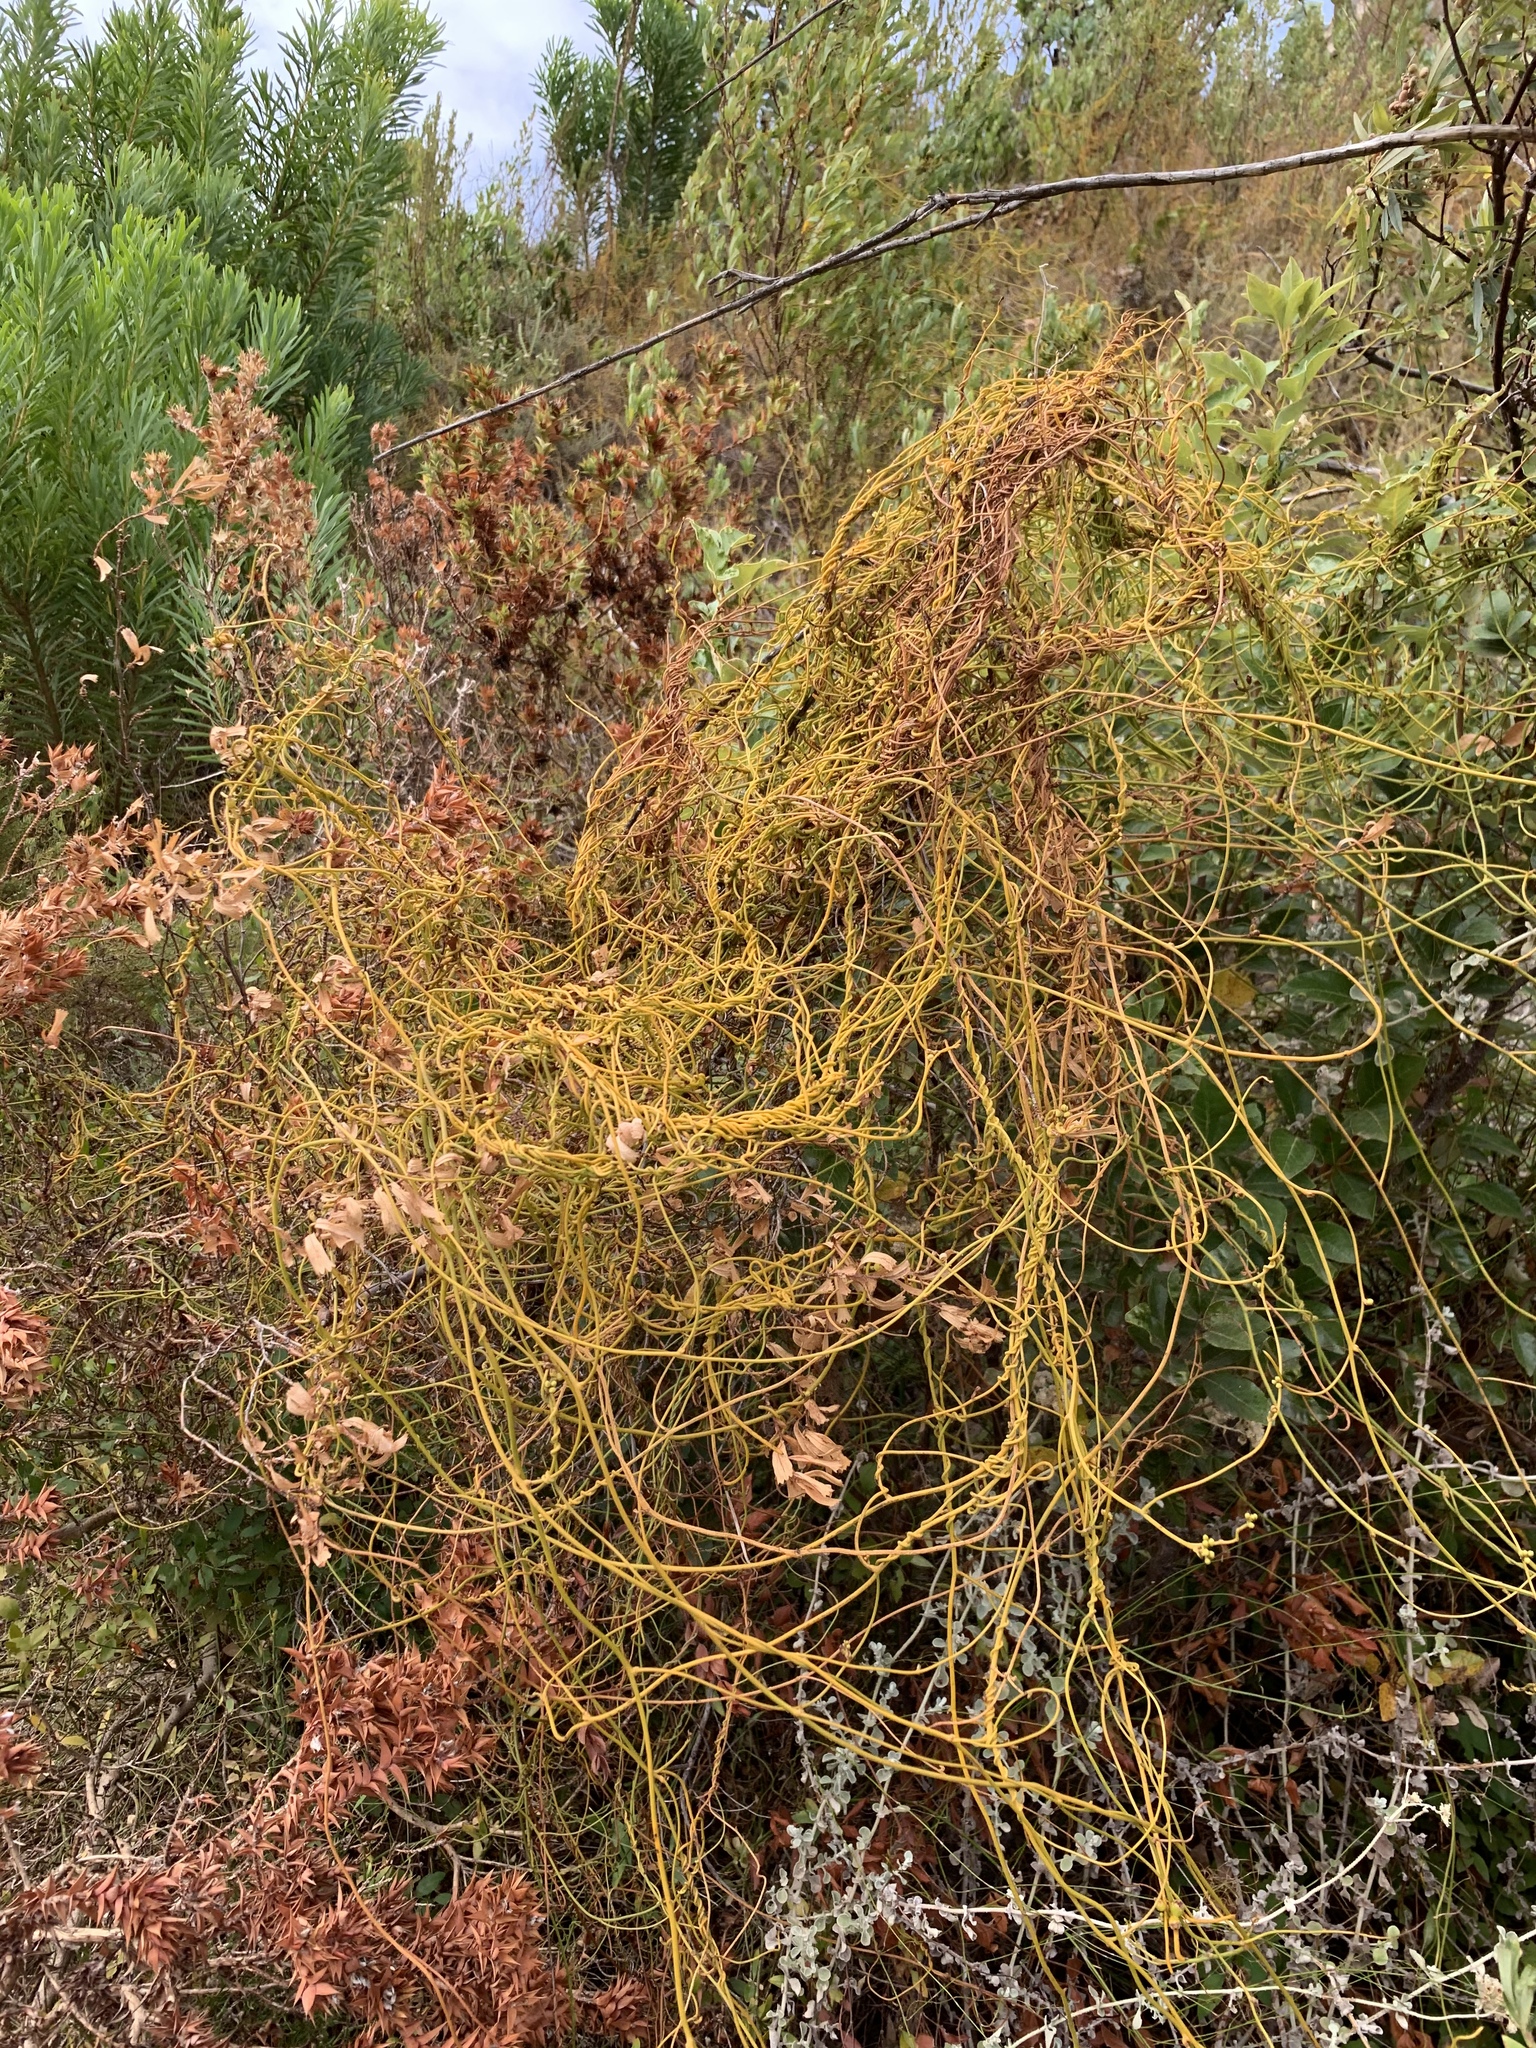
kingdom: Plantae
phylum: Tracheophyta
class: Magnoliopsida
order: Laurales
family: Lauraceae
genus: Cassytha
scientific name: Cassytha ciliolata
